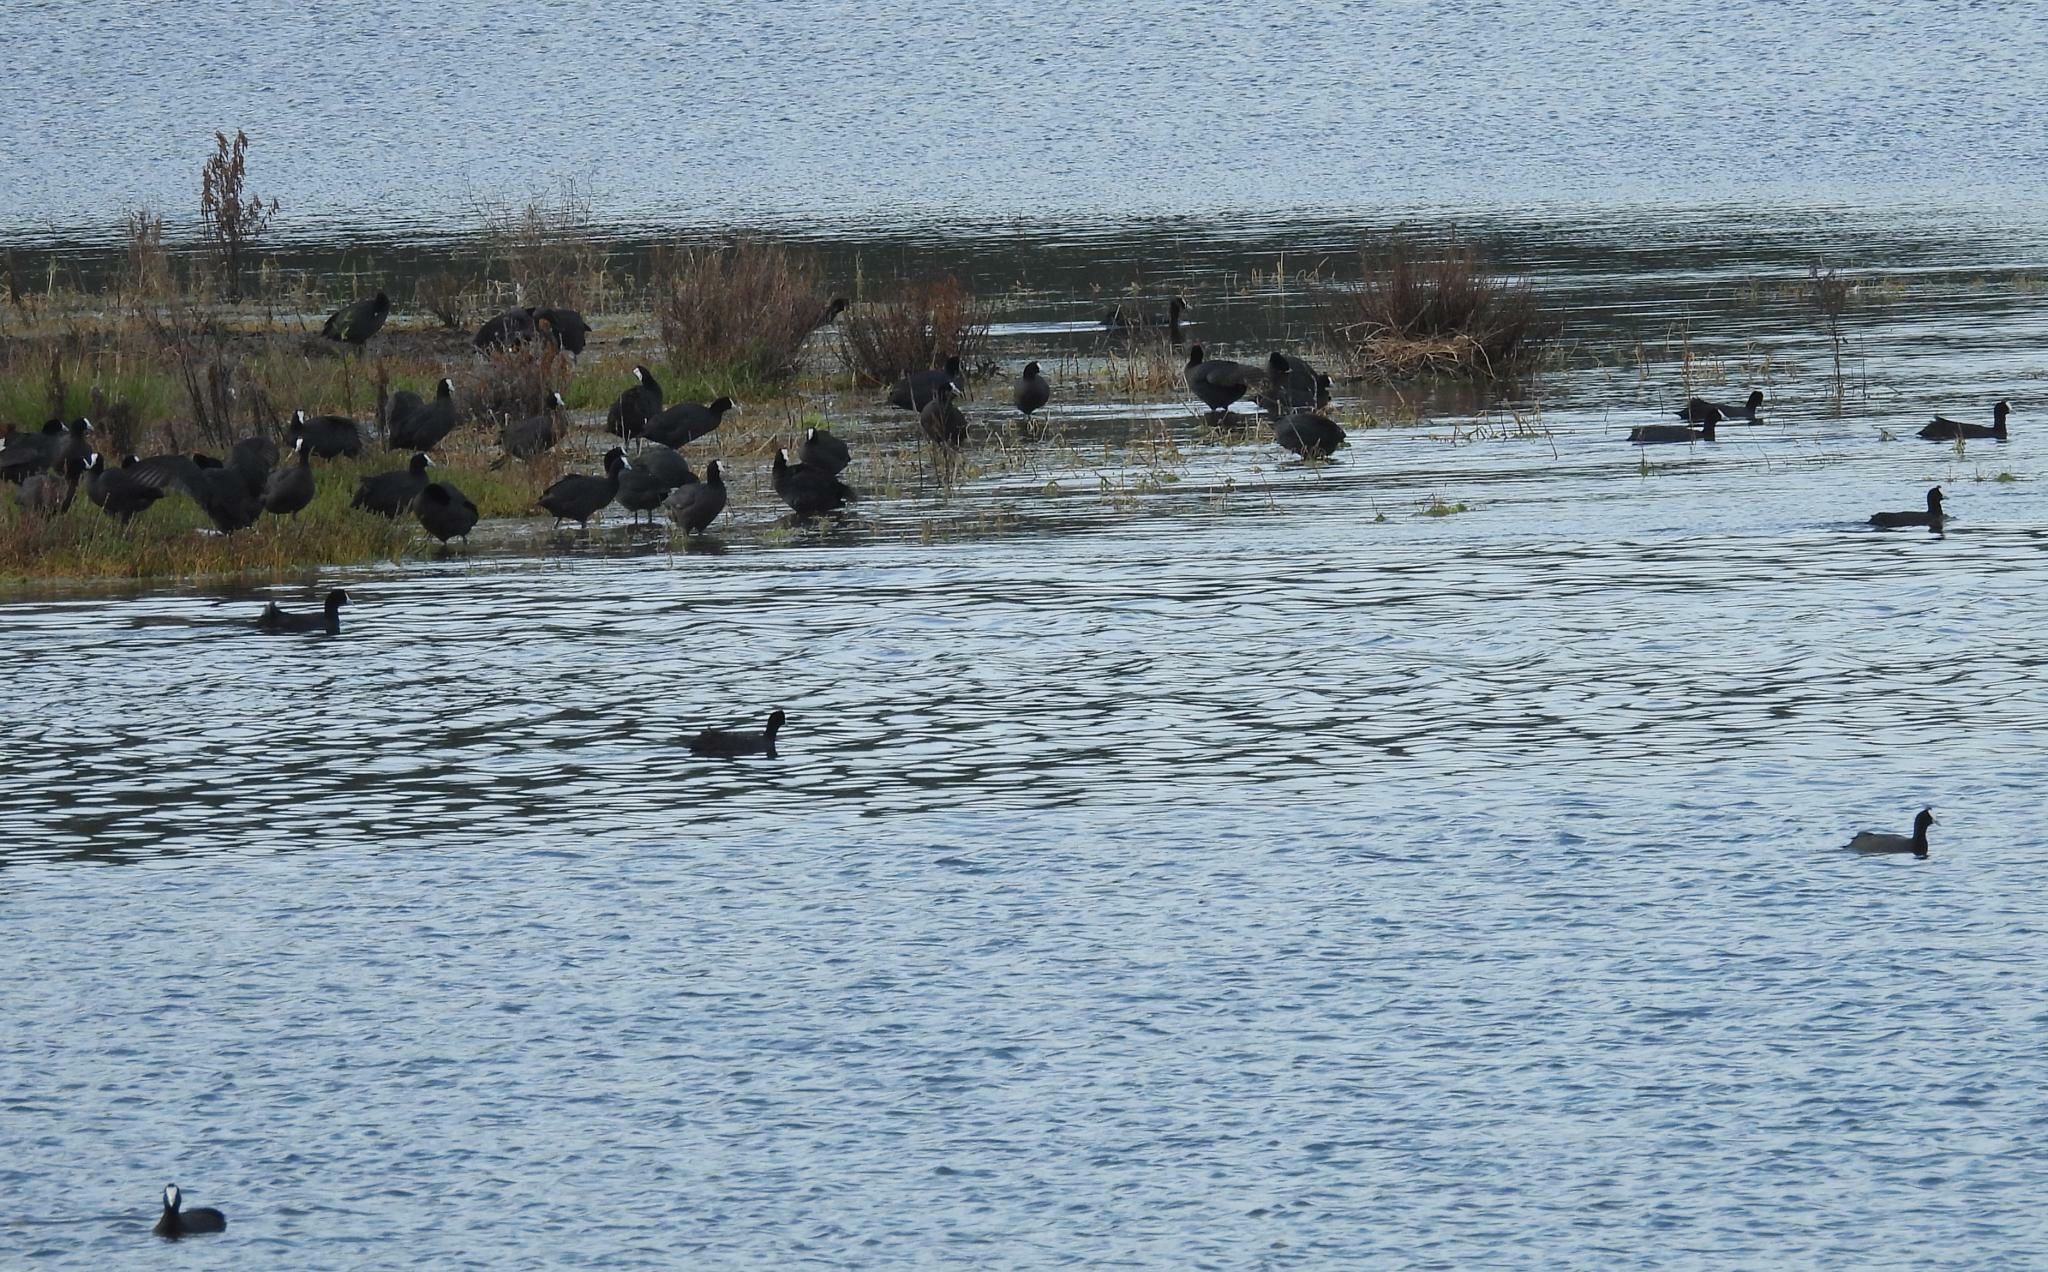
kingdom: Animalia
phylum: Chordata
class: Aves
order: Gruiformes
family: Rallidae
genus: Fulica
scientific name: Fulica cristata
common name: Red-knobbed coot
